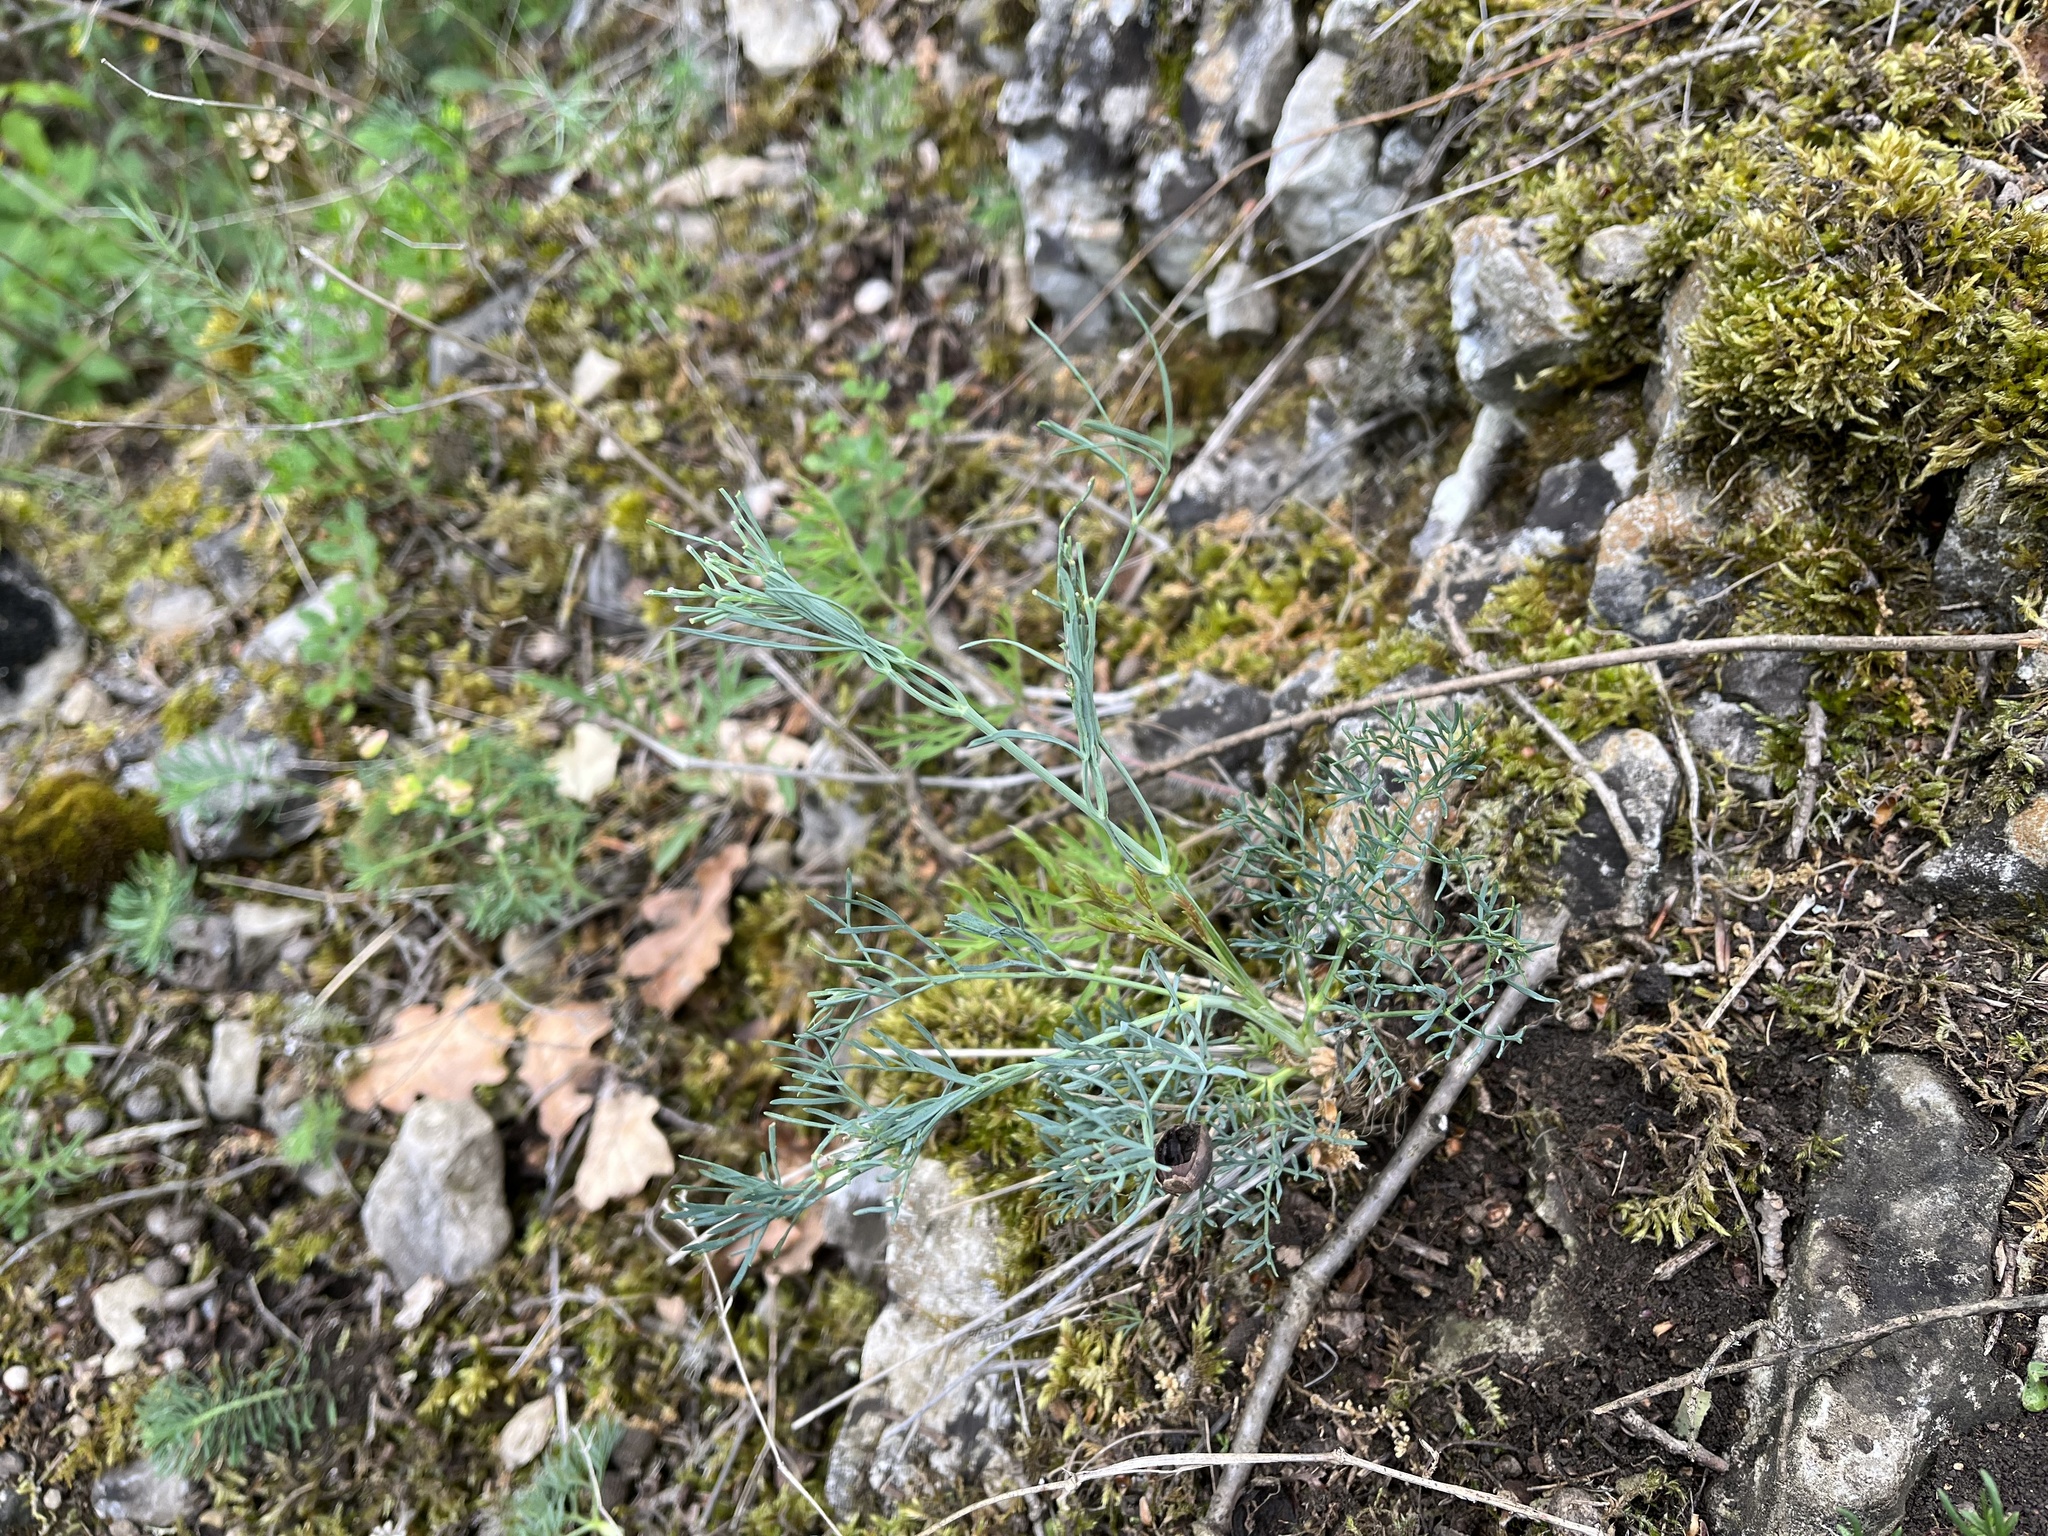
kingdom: Plantae
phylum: Tracheophyta
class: Magnoliopsida
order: Apiales
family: Apiaceae
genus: Seseli
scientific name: Seseli osseum
